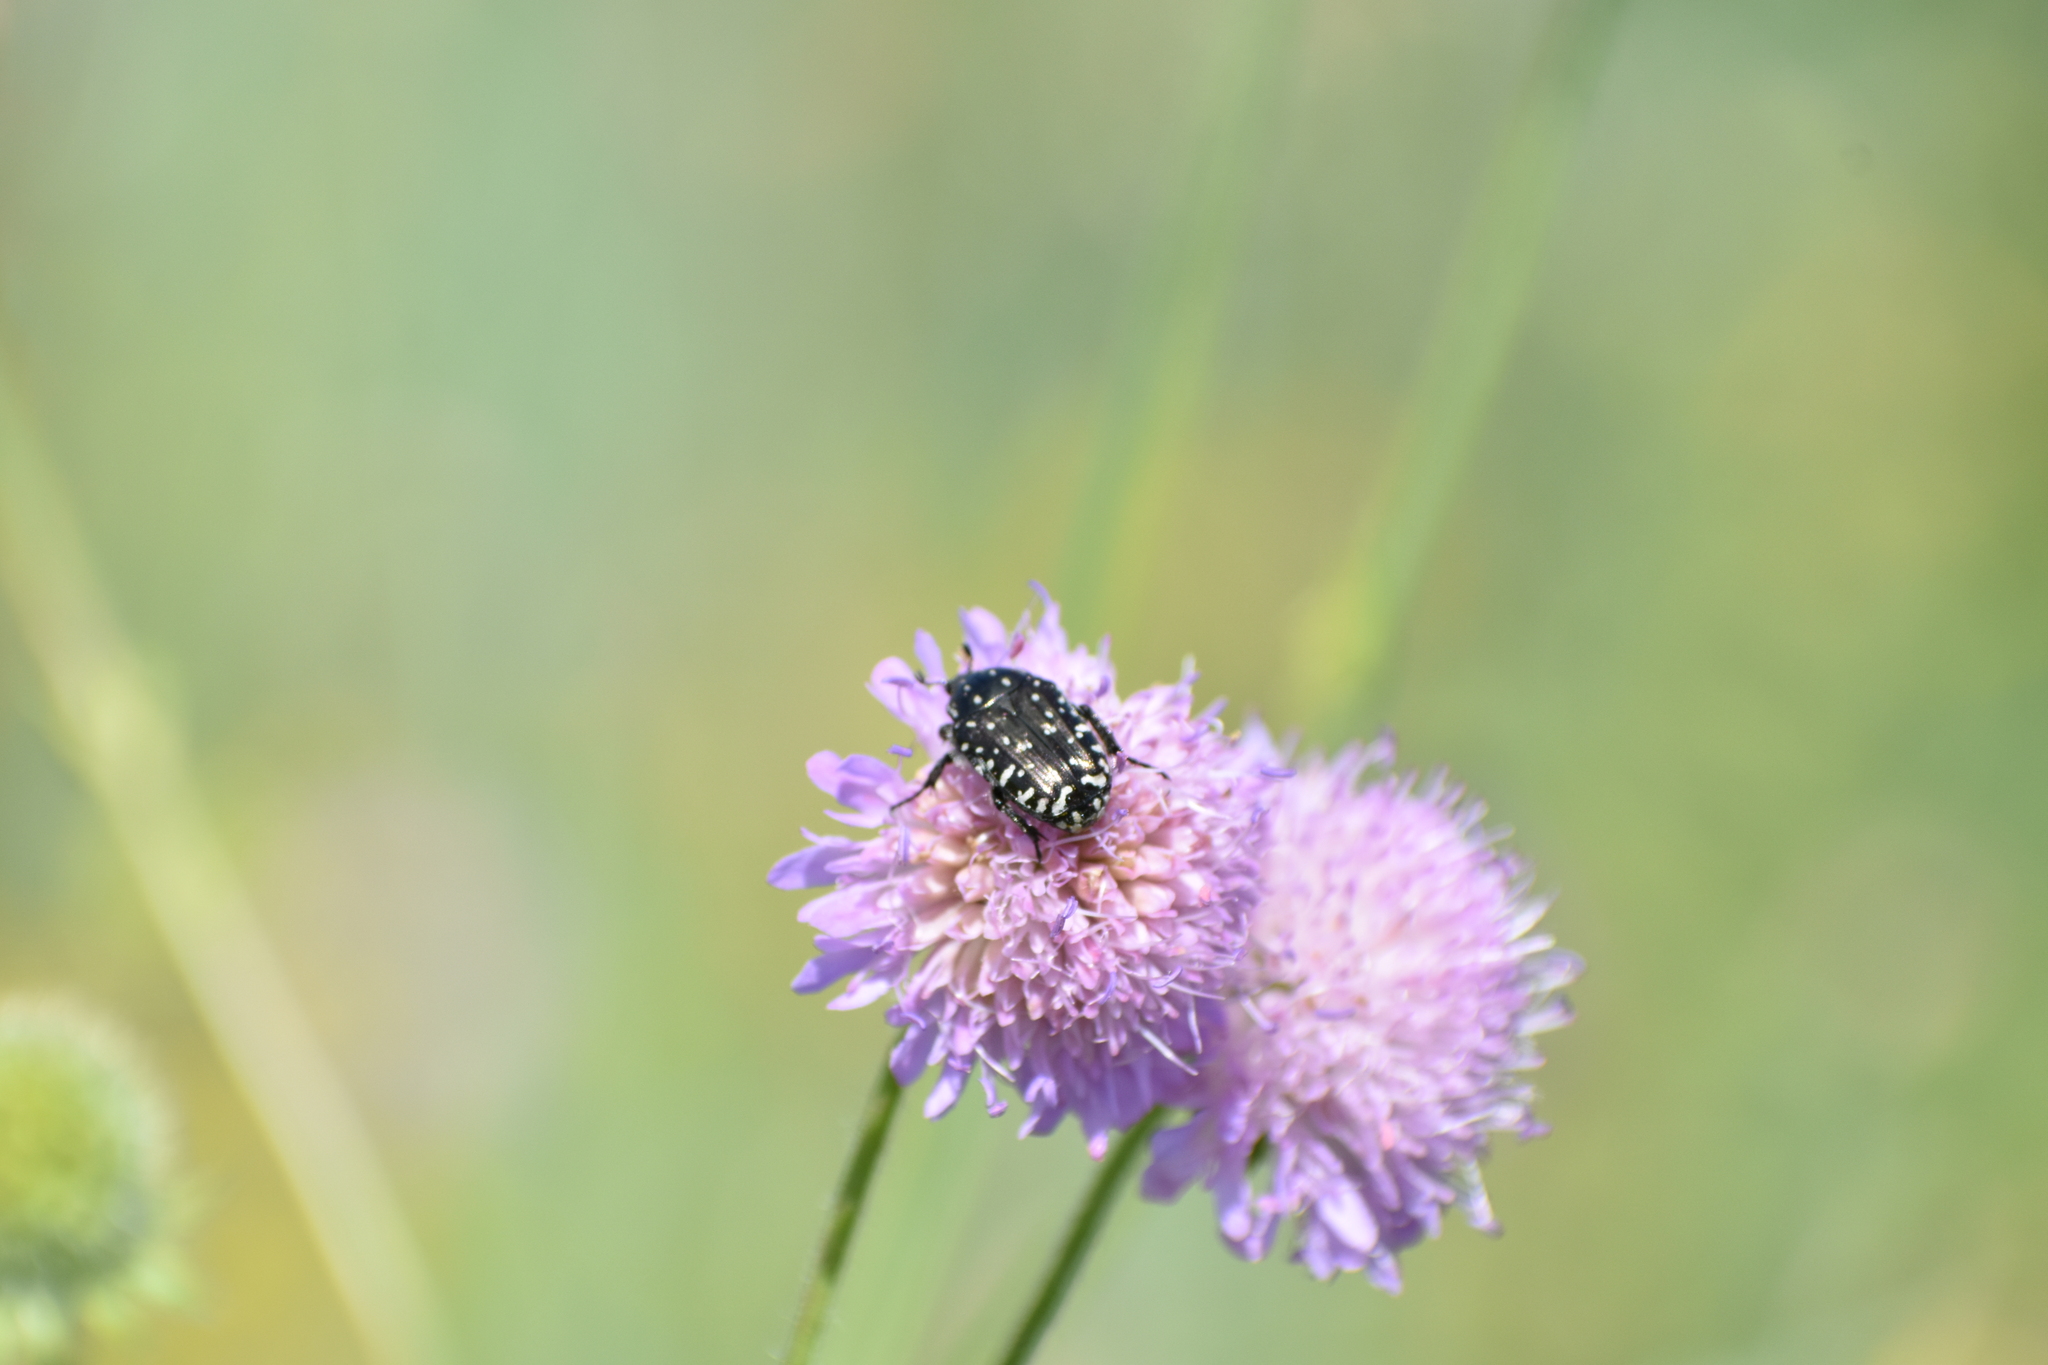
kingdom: Animalia
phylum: Arthropoda
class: Insecta
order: Coleoptera
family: Scarabaeidae
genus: Oxythyrea
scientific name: Oxythyrea funesta
